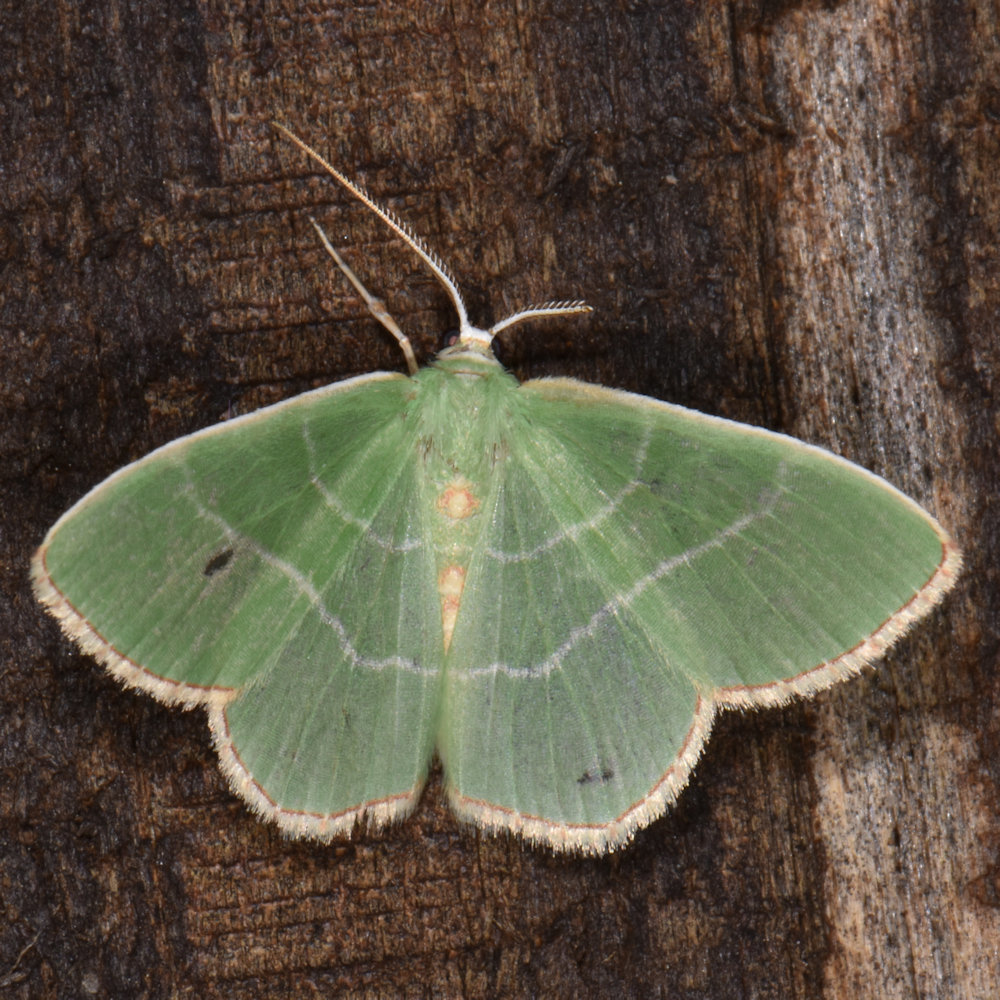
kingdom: Animalia
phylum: Arthropoda
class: Insecta
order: Lepidoptera
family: Geometridae
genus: Nemoria
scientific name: Nemoria bistriaria
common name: Red-fringed emerald
